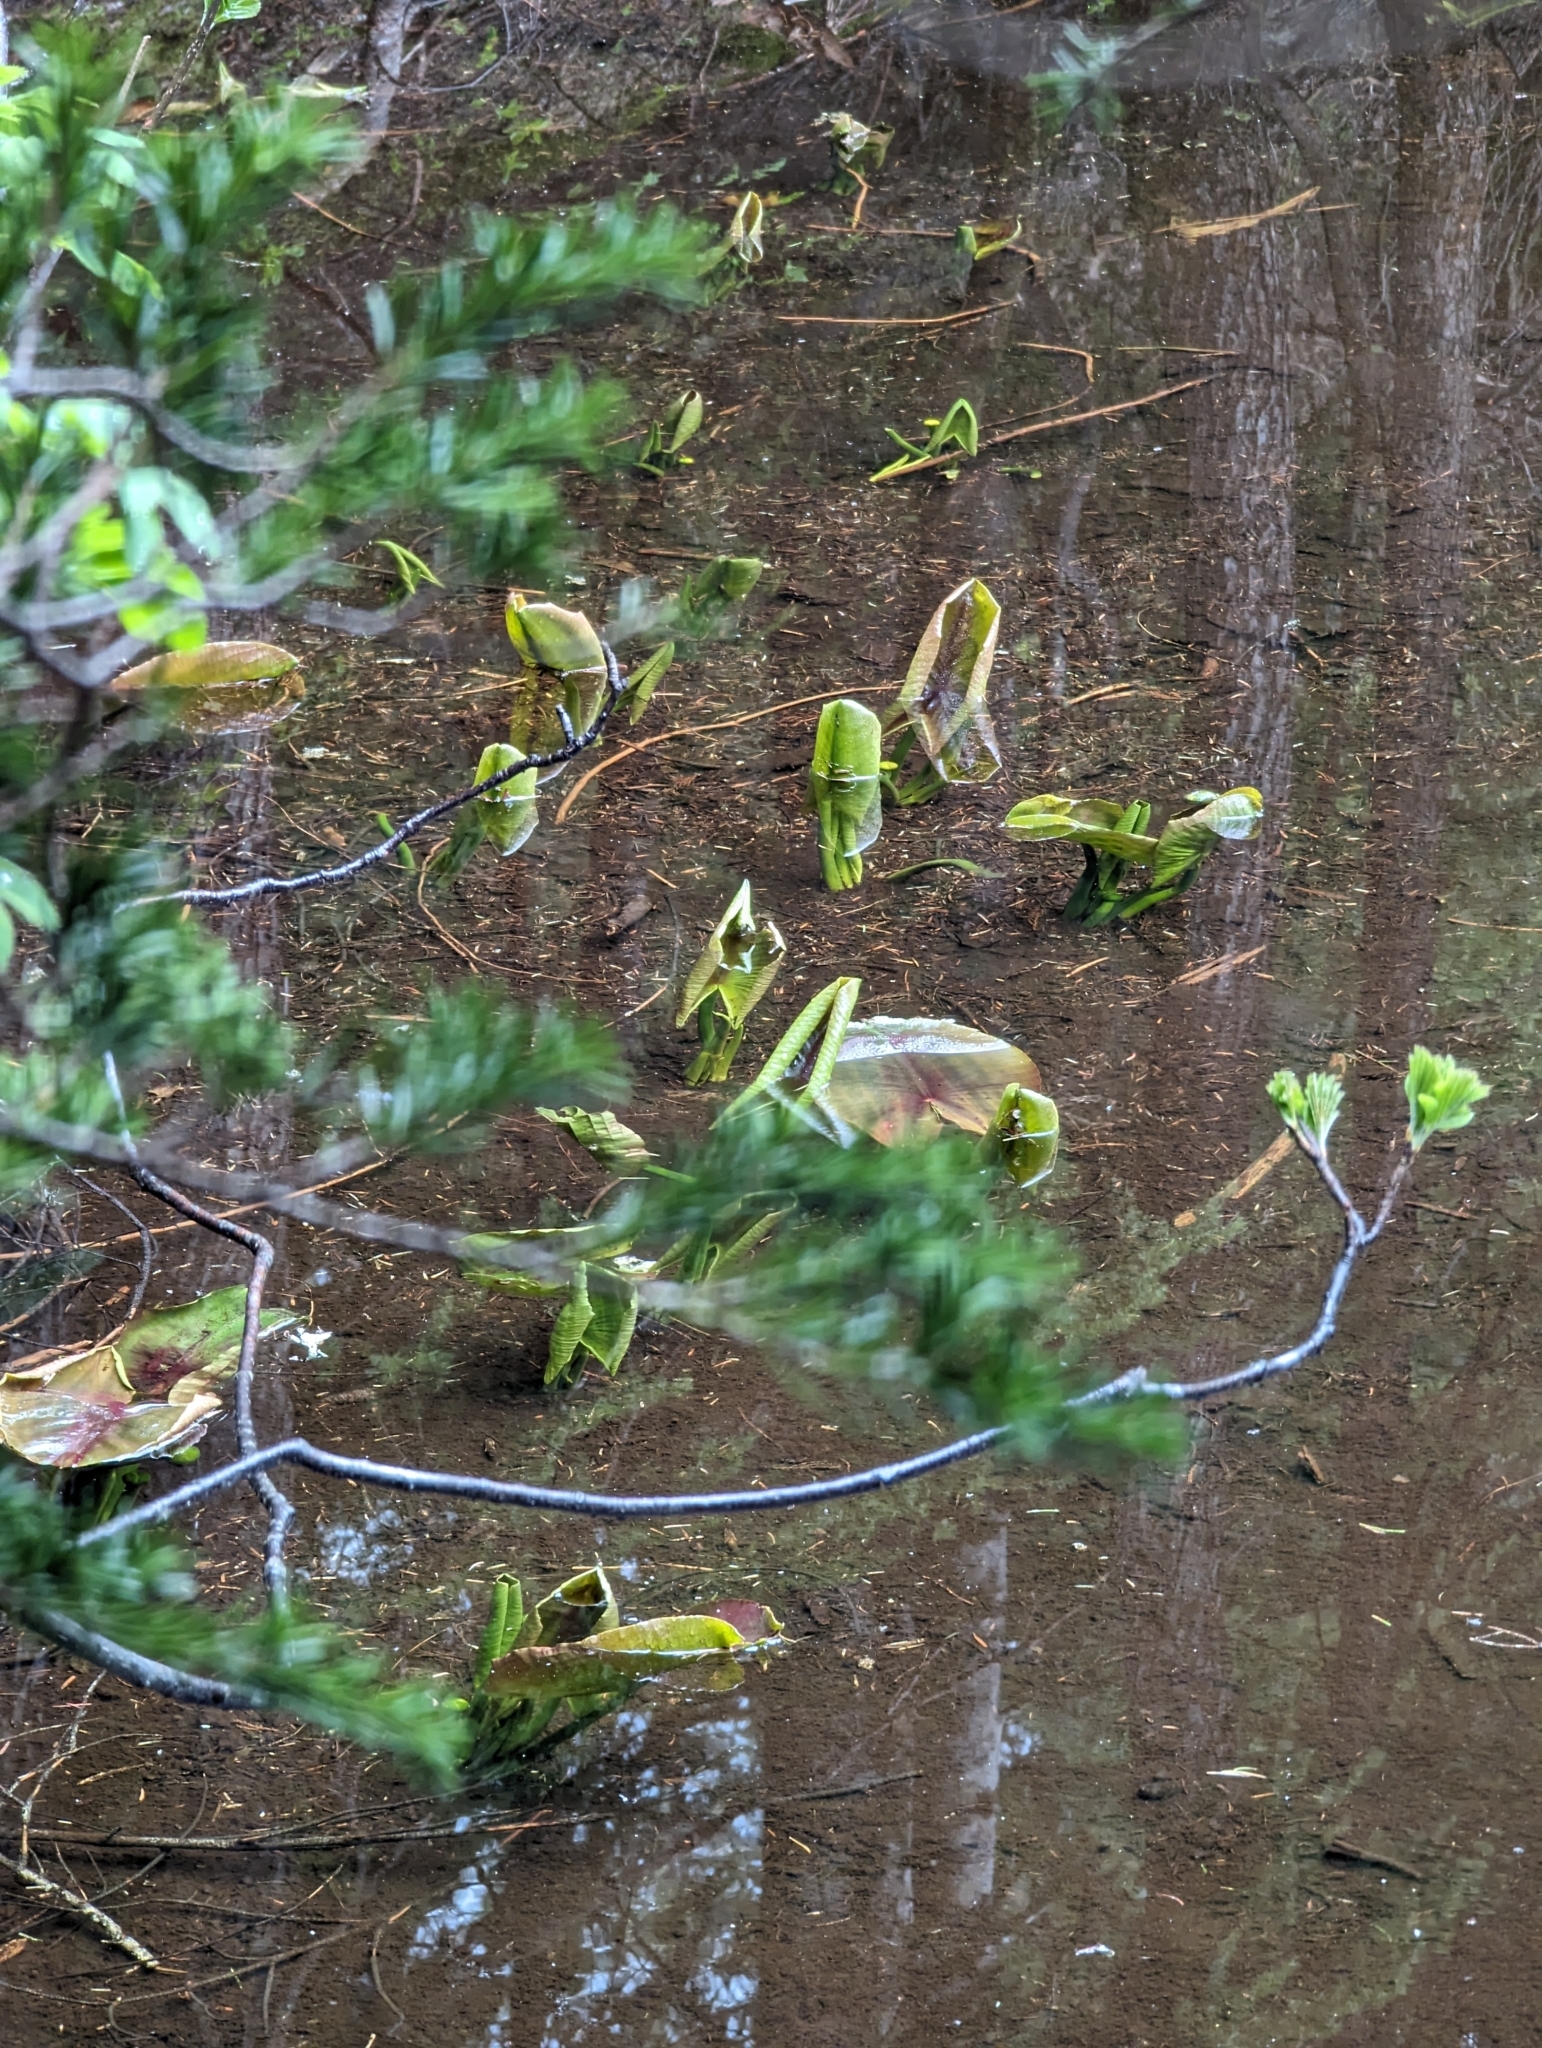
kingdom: Plantae
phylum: Tracheophyta
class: Magnoliopsida
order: Nymphaeales
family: Nymphaeaceae
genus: Nuphar
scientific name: Nuphar polysepala
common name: Rocky mountain cow-lily
